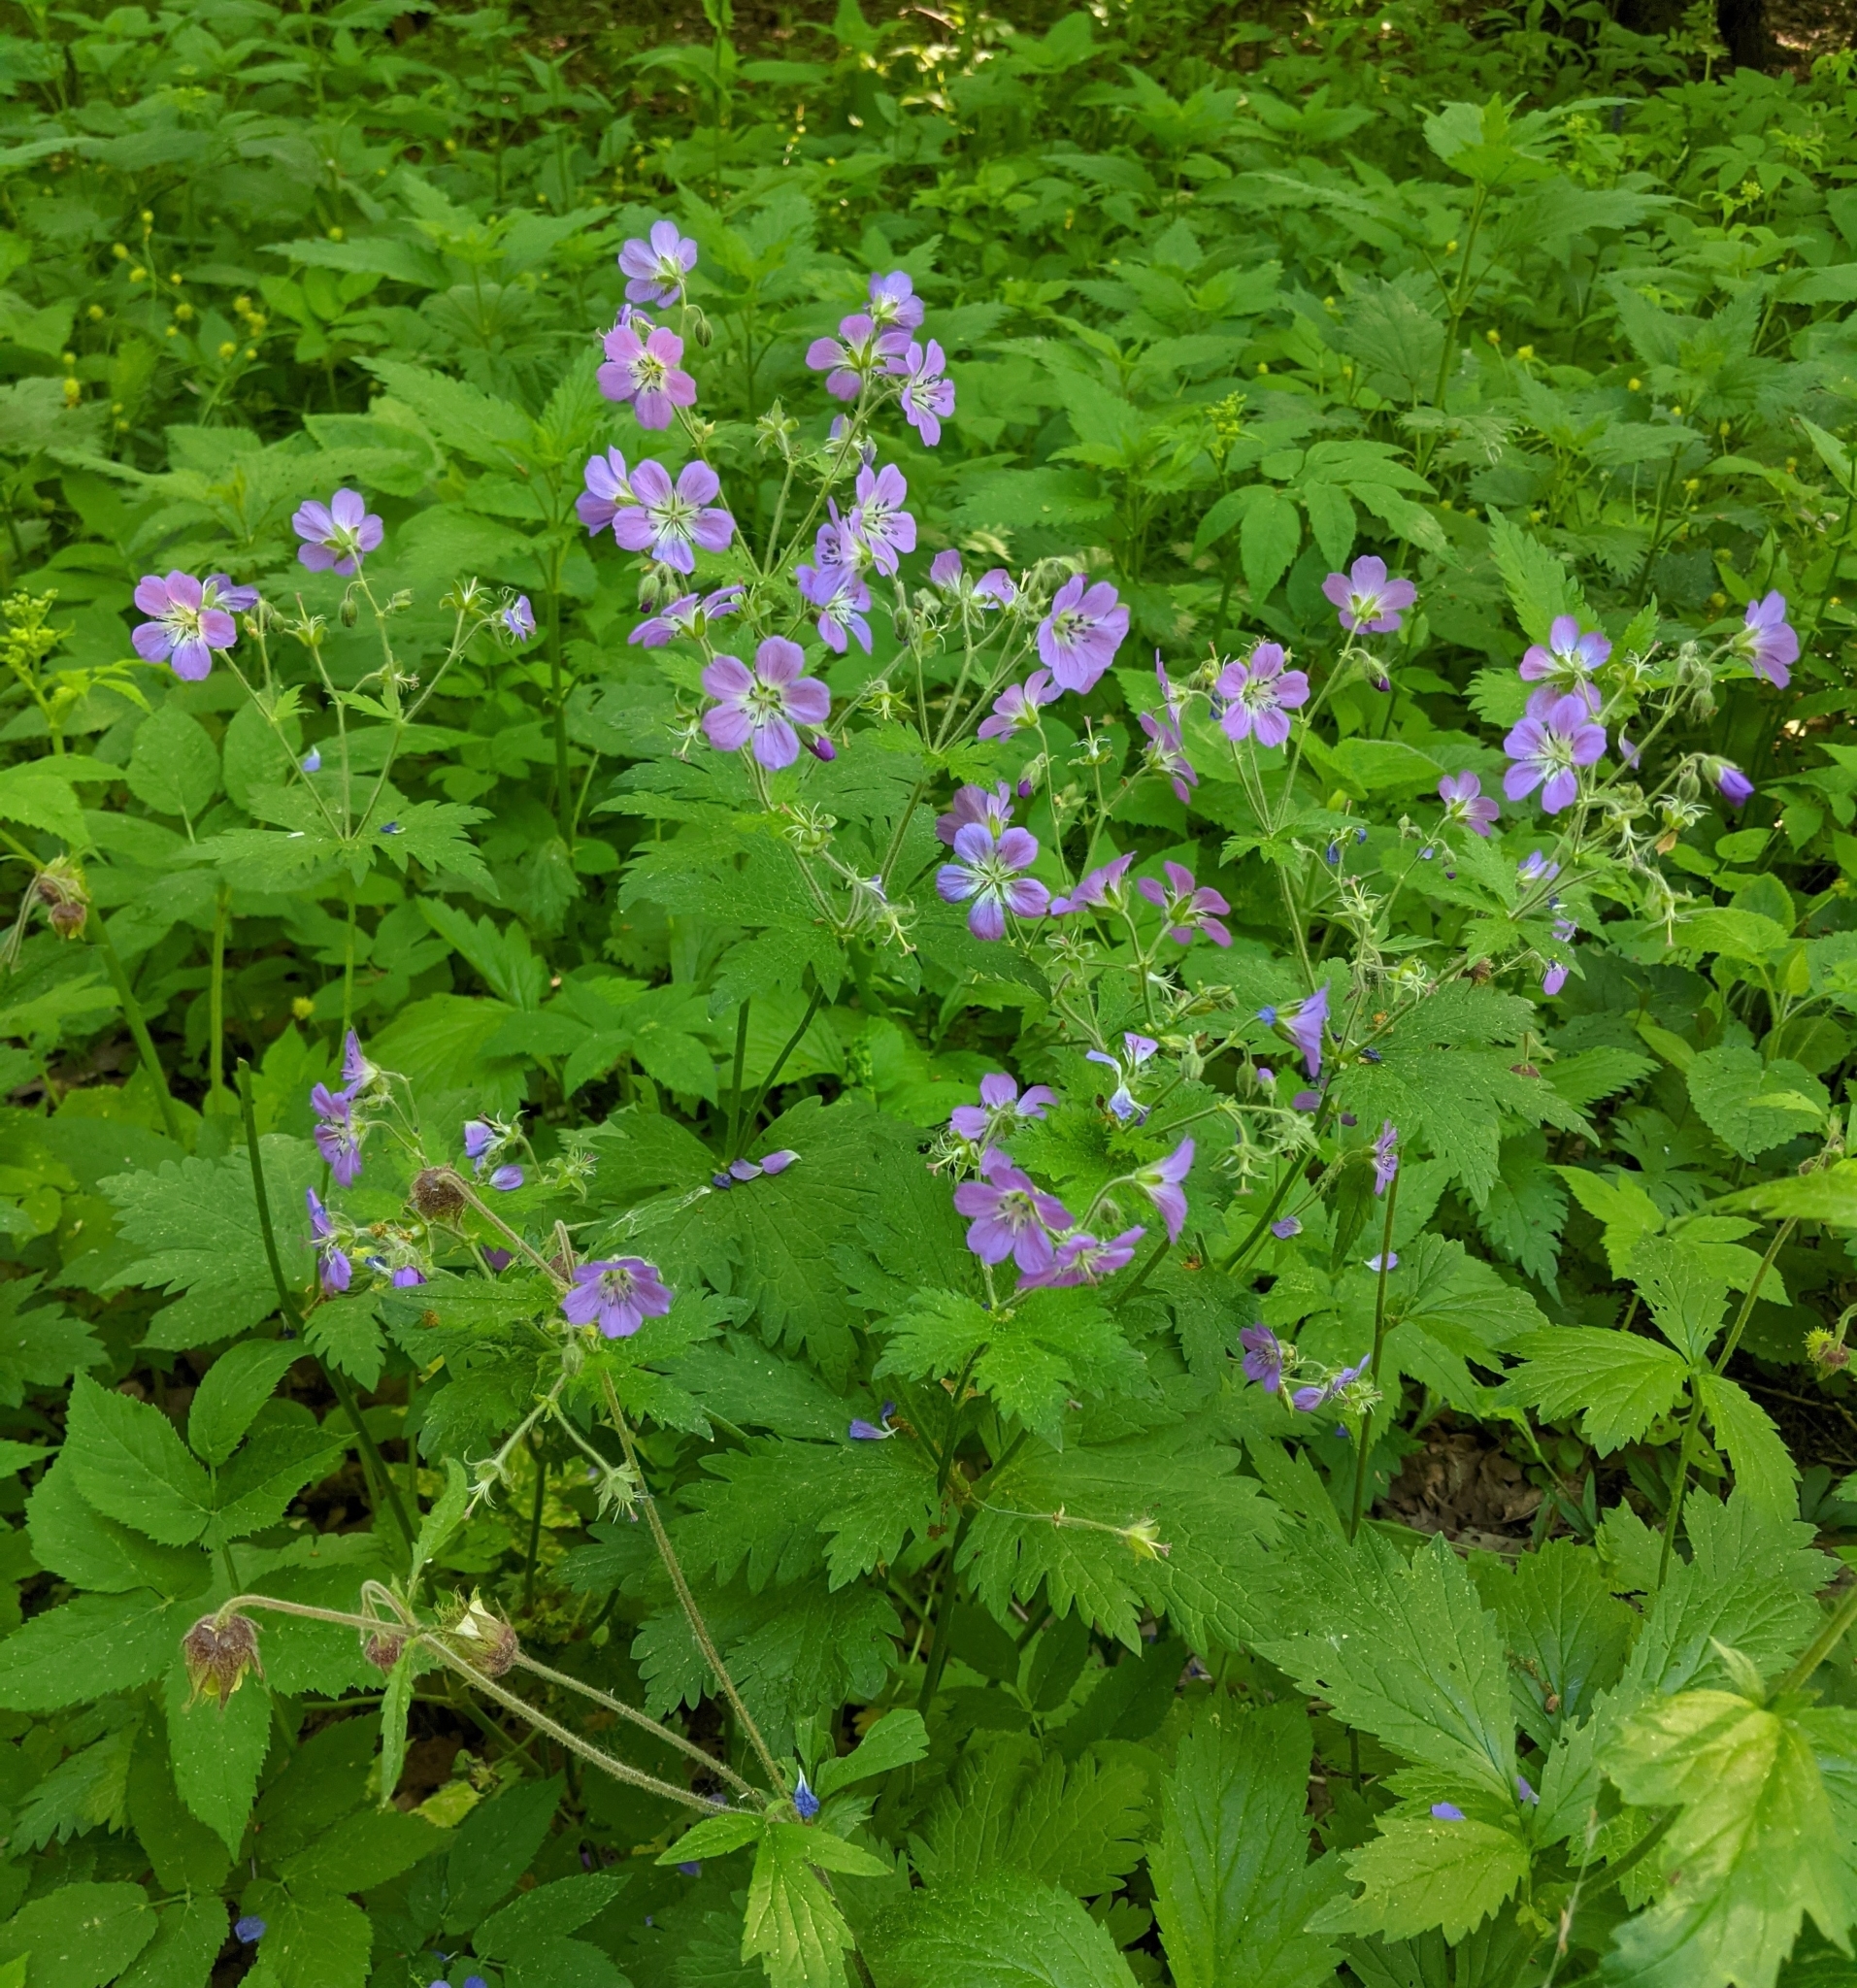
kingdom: Plantae
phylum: Tracheophyta
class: Magnoliopsida
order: Geraniales
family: Geraniaceae
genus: Geranium
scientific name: Geranium sylvaticum
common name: Wood crane's-bill
